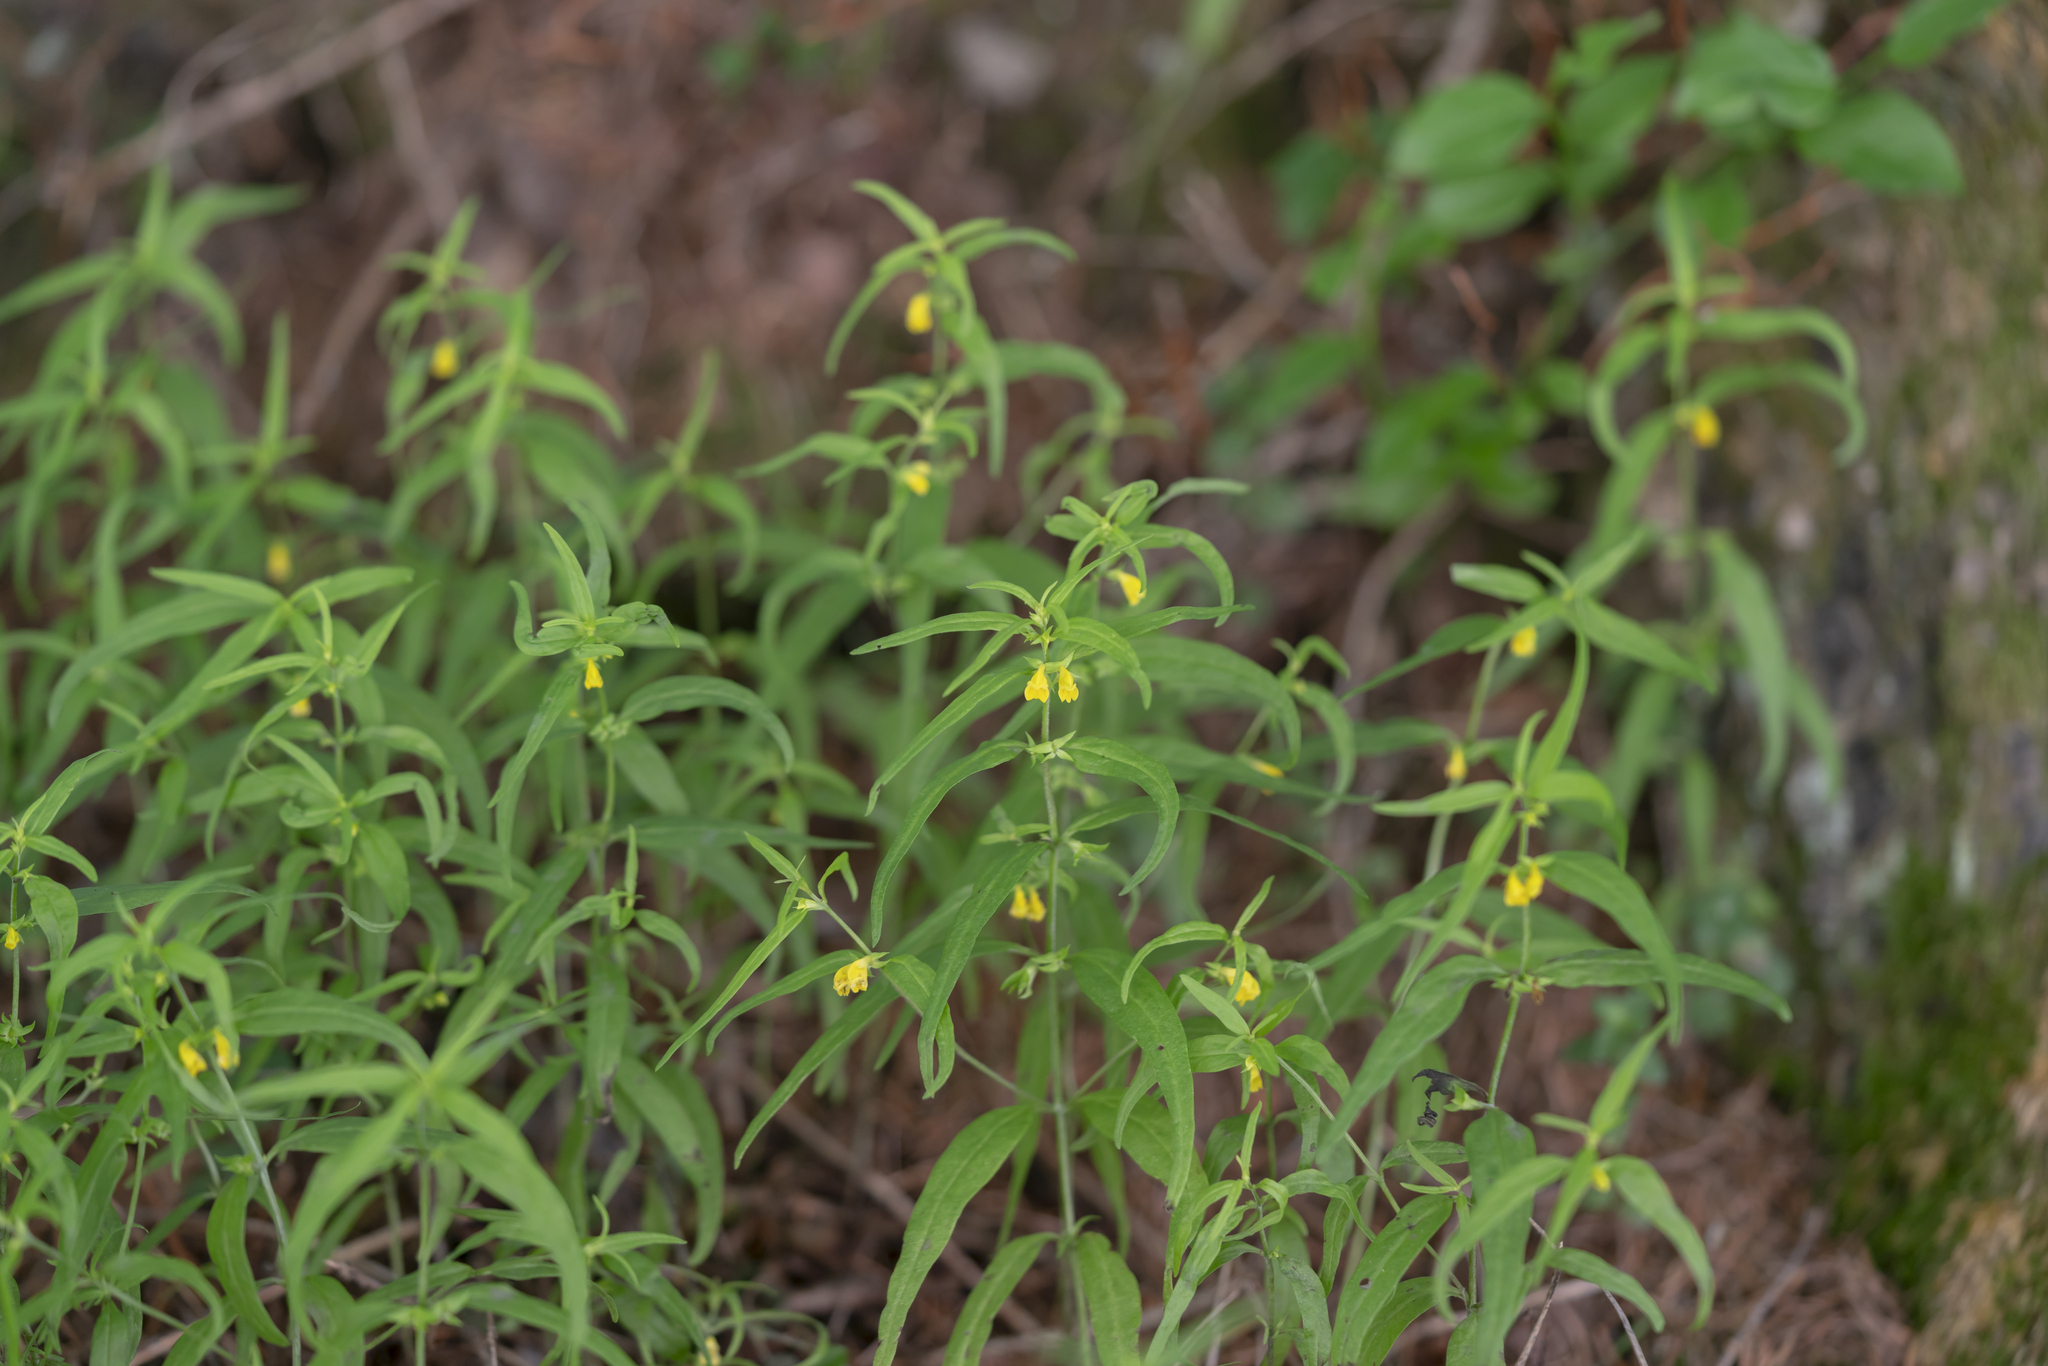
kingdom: Plantae
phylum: Tracheophyta
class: Magnoliopsida
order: Lamiales
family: Orobanchaceae
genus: Melampyrum
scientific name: Melampyrum sylvaticum
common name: Small cow-wheat
